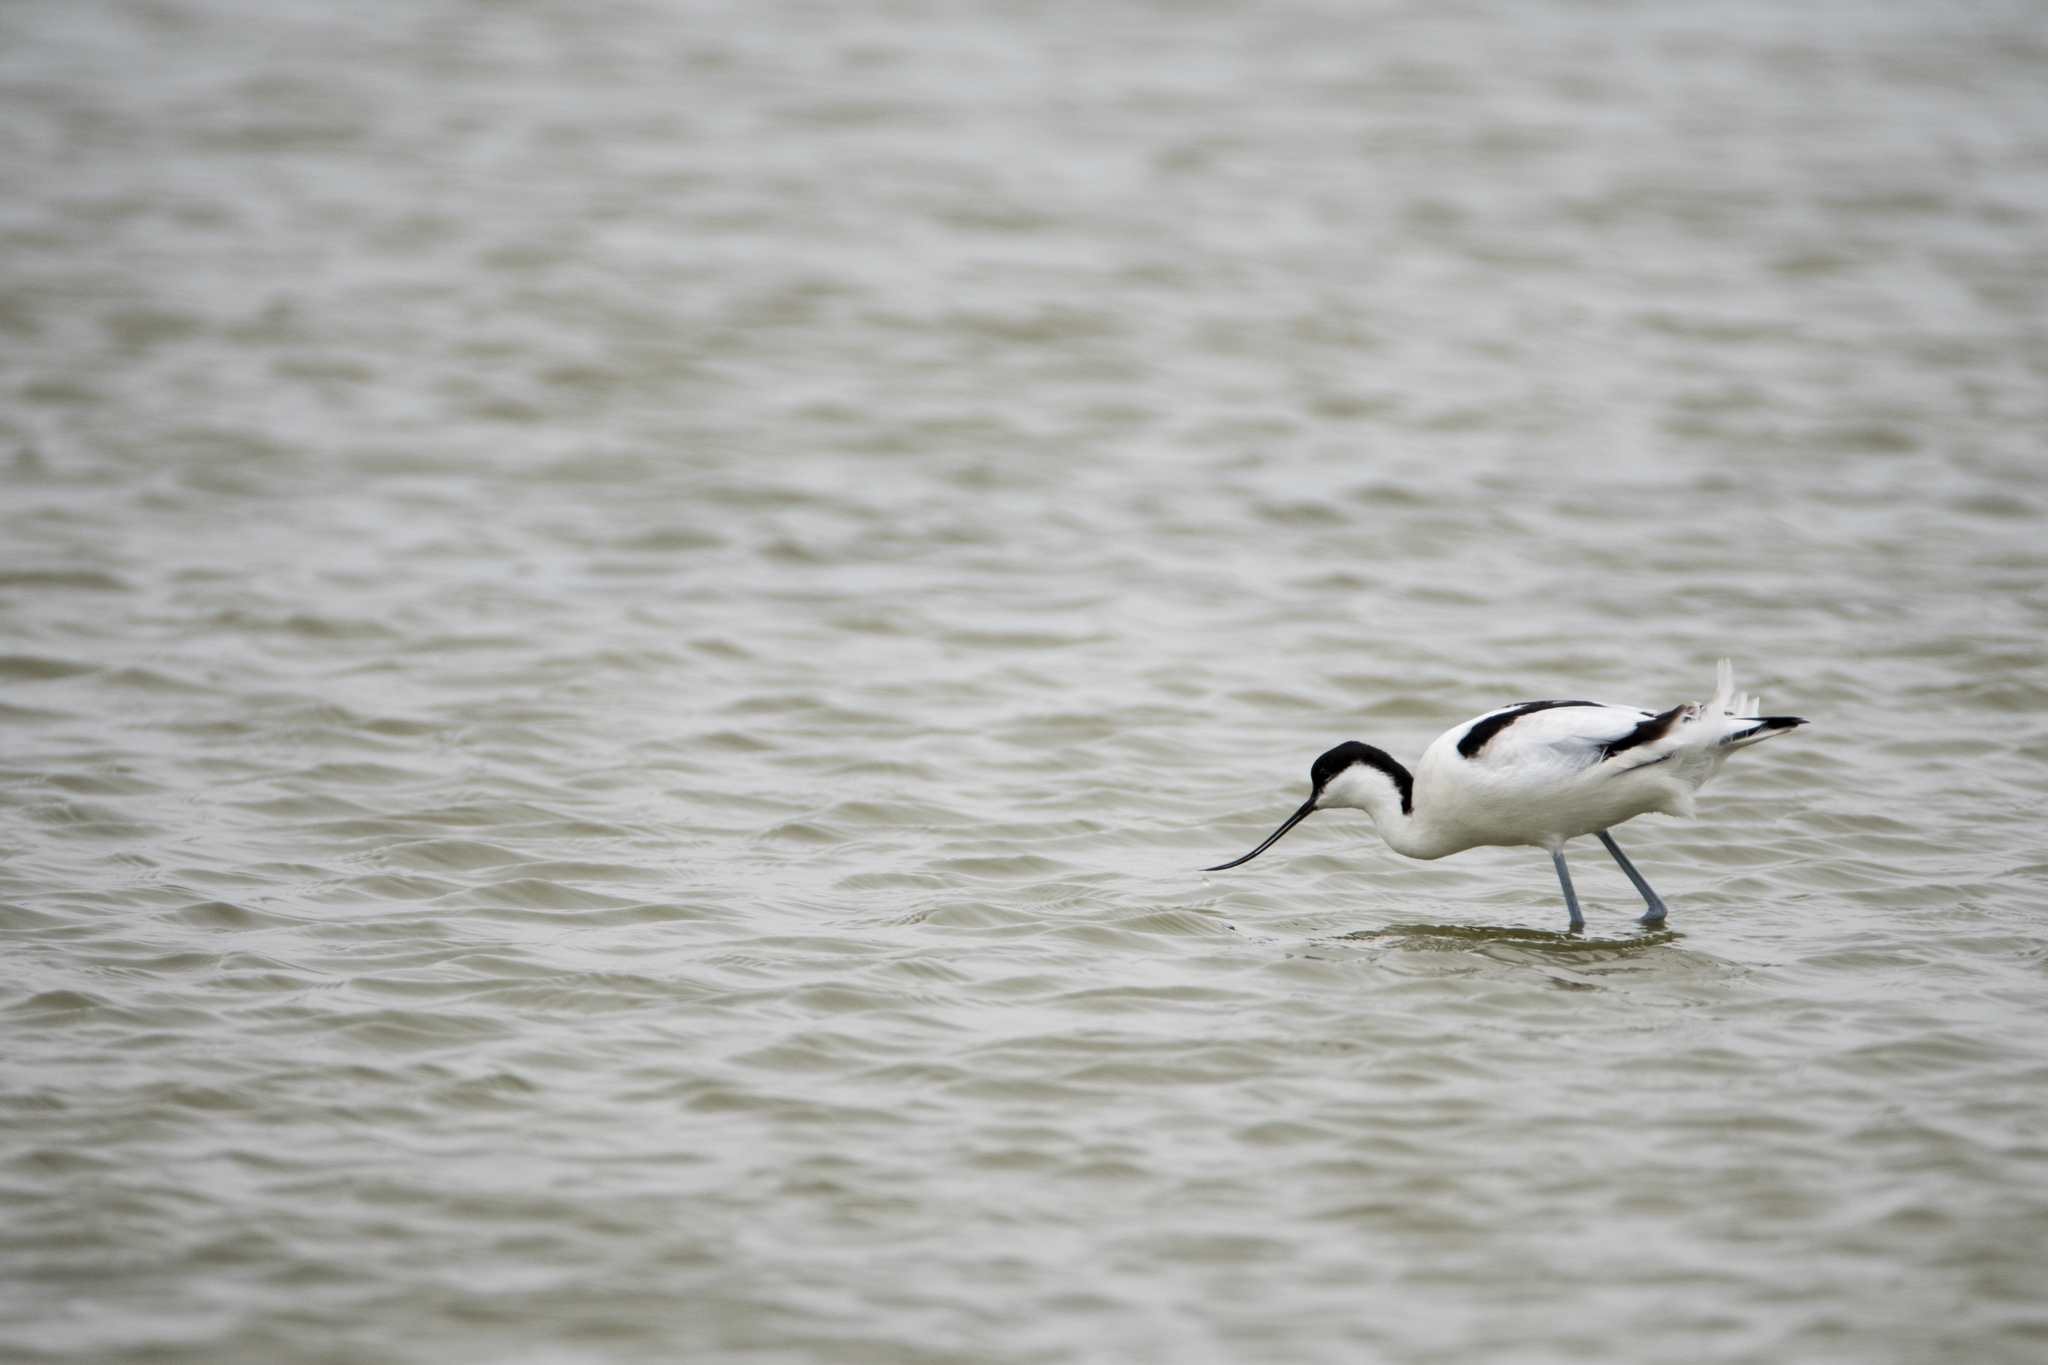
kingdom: Animalia
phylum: Chordata
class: Aves
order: Charadriiformes
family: Recurvirostridae
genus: Recurvirostra
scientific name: Recurvirostra avosetta
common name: Pied avocet
